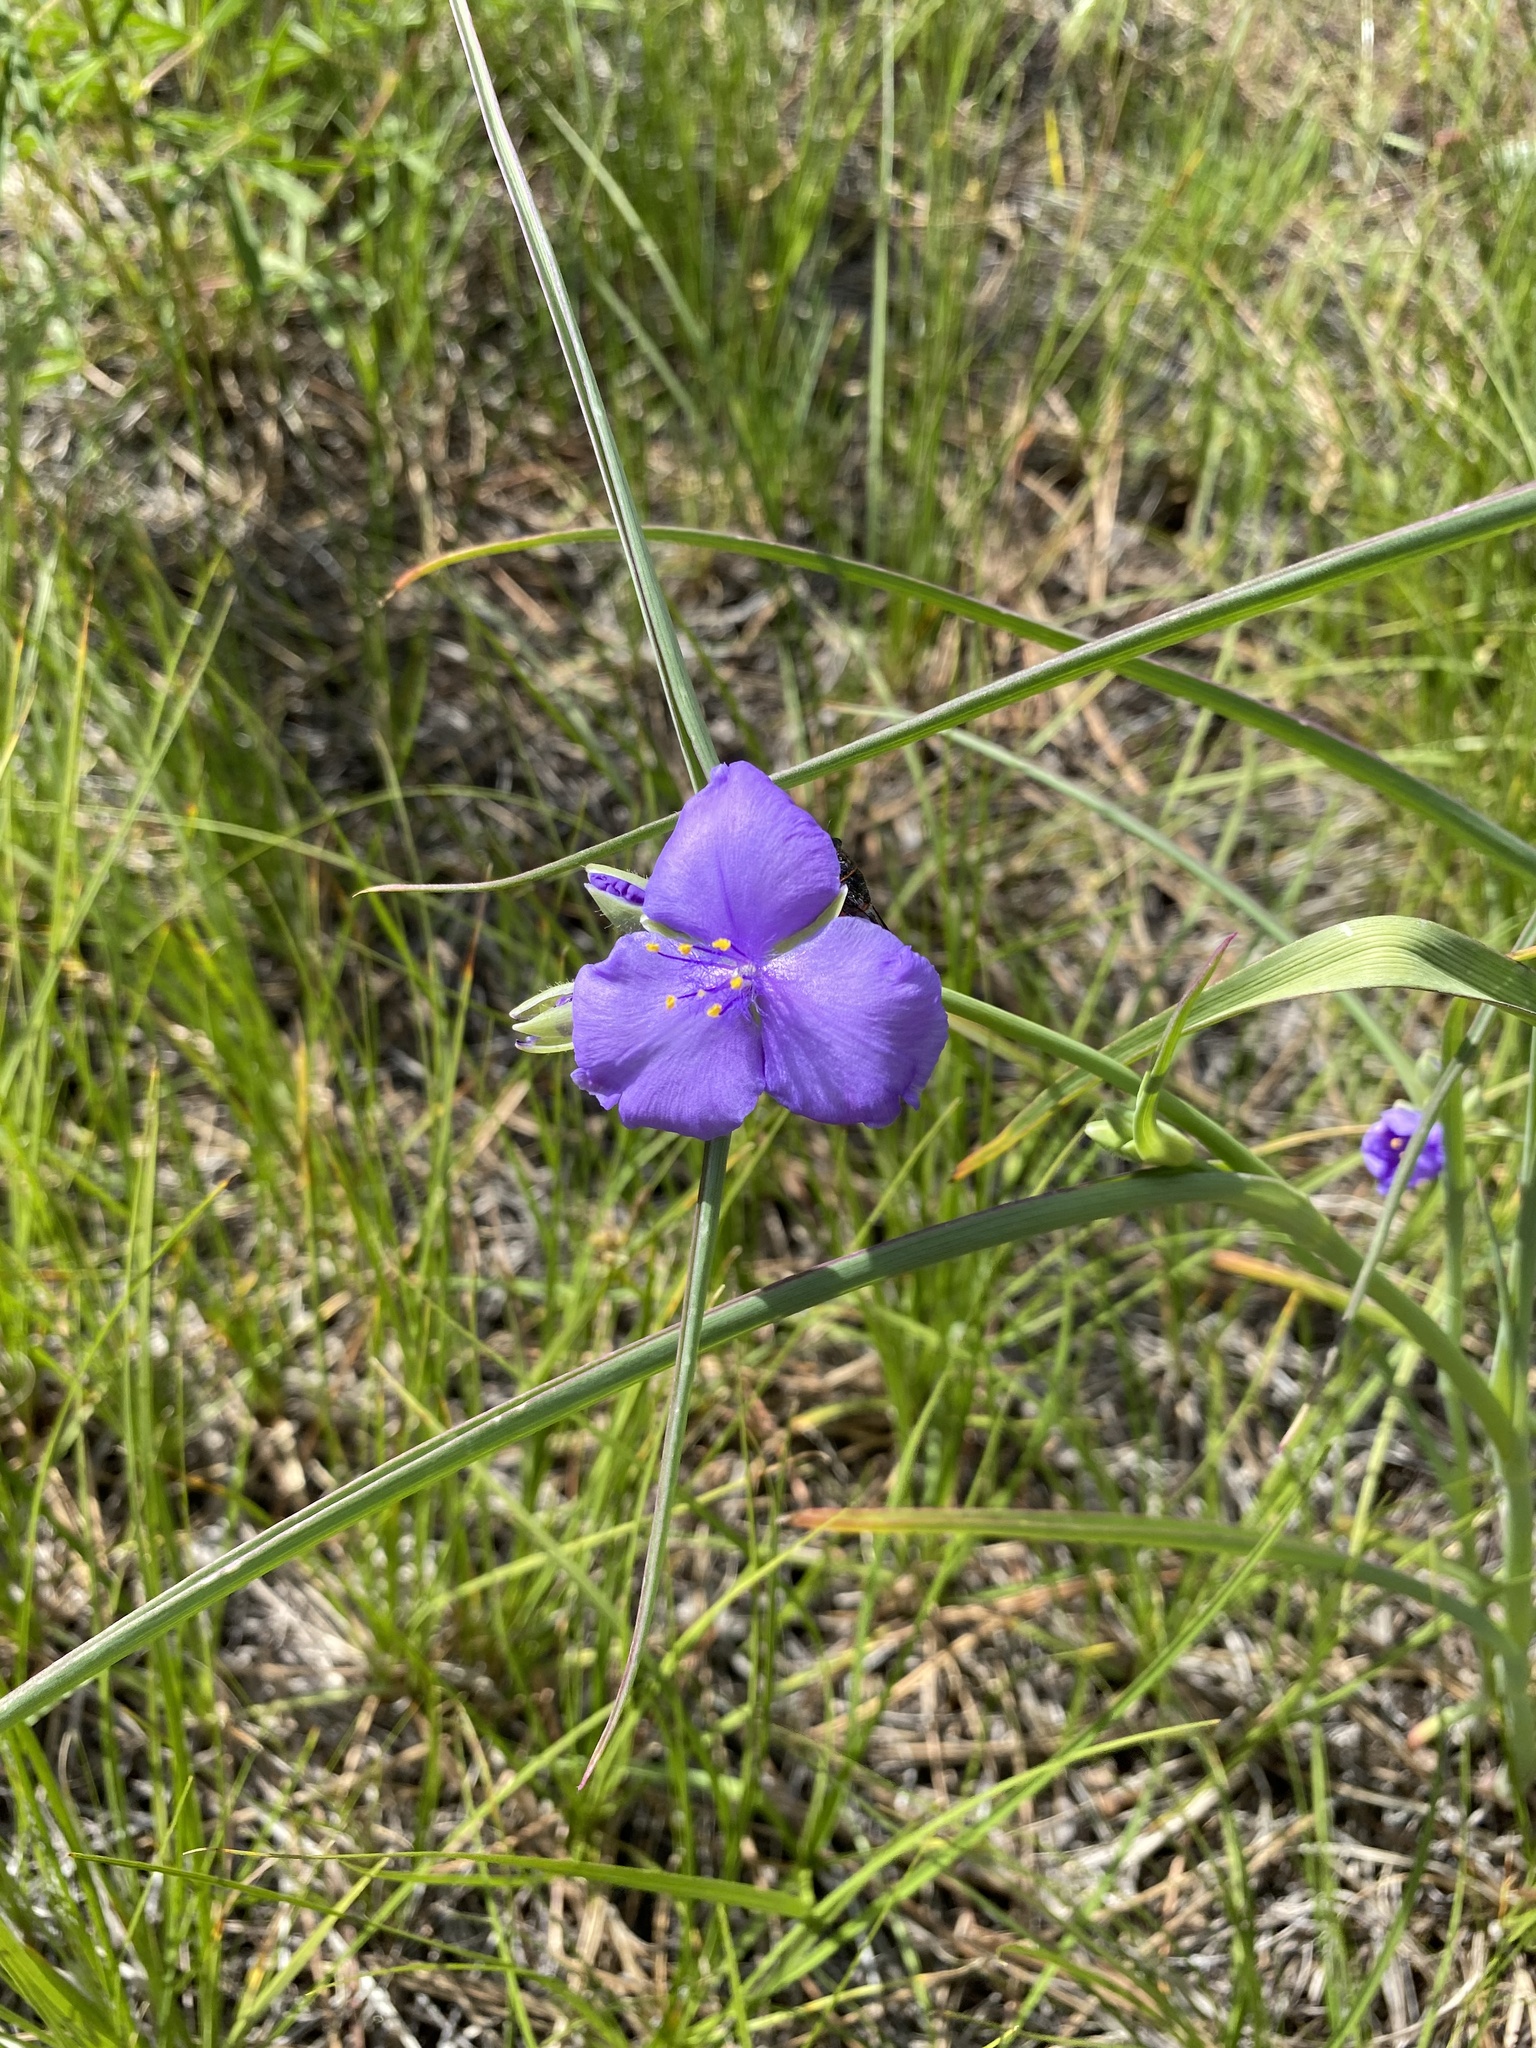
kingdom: Plantae
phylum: Tracheophyta
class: Liliopsida
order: Commelinales
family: Commelinaceae
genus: Tradescantia
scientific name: Tradescantia occidentalis
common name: Prairie spiderwort
